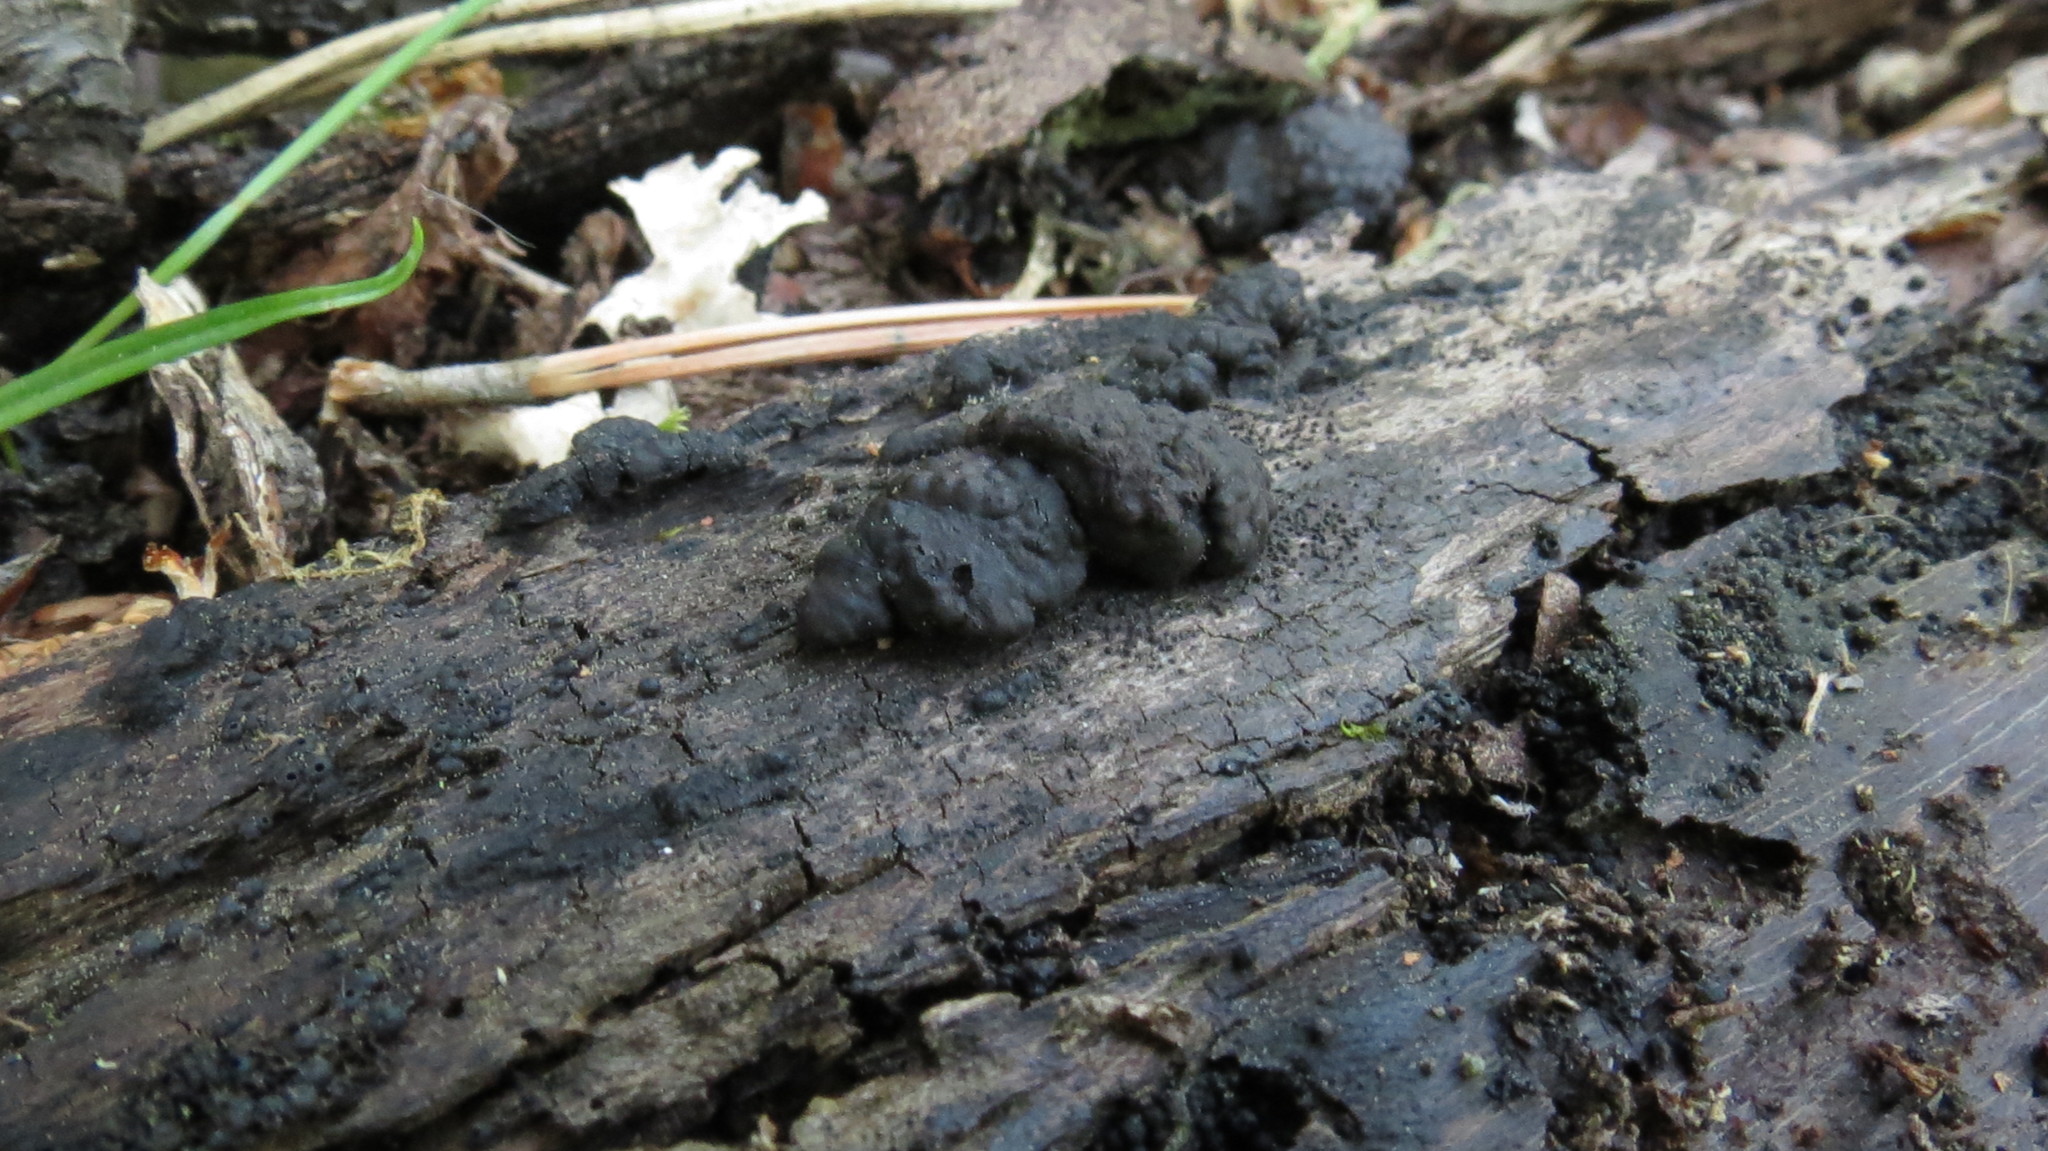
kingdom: Fungi
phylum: Ascomycota
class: Sordariomycetes
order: Xylariales
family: Hypoxylaceae
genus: Jackrogersella
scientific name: Jackrogersella multiformis
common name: Birch woodwart
